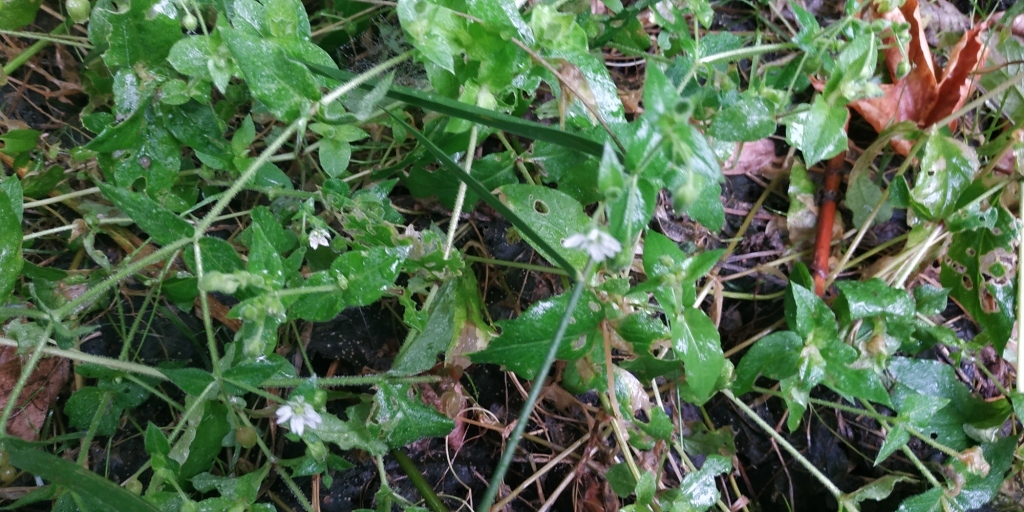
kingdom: Plantae
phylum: Tracheophyta
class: Magnoliopsida
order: Caryophyllales
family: Caryophyllaceae
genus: Stellaria
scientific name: Stellaria aquatica
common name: Water chickweed
